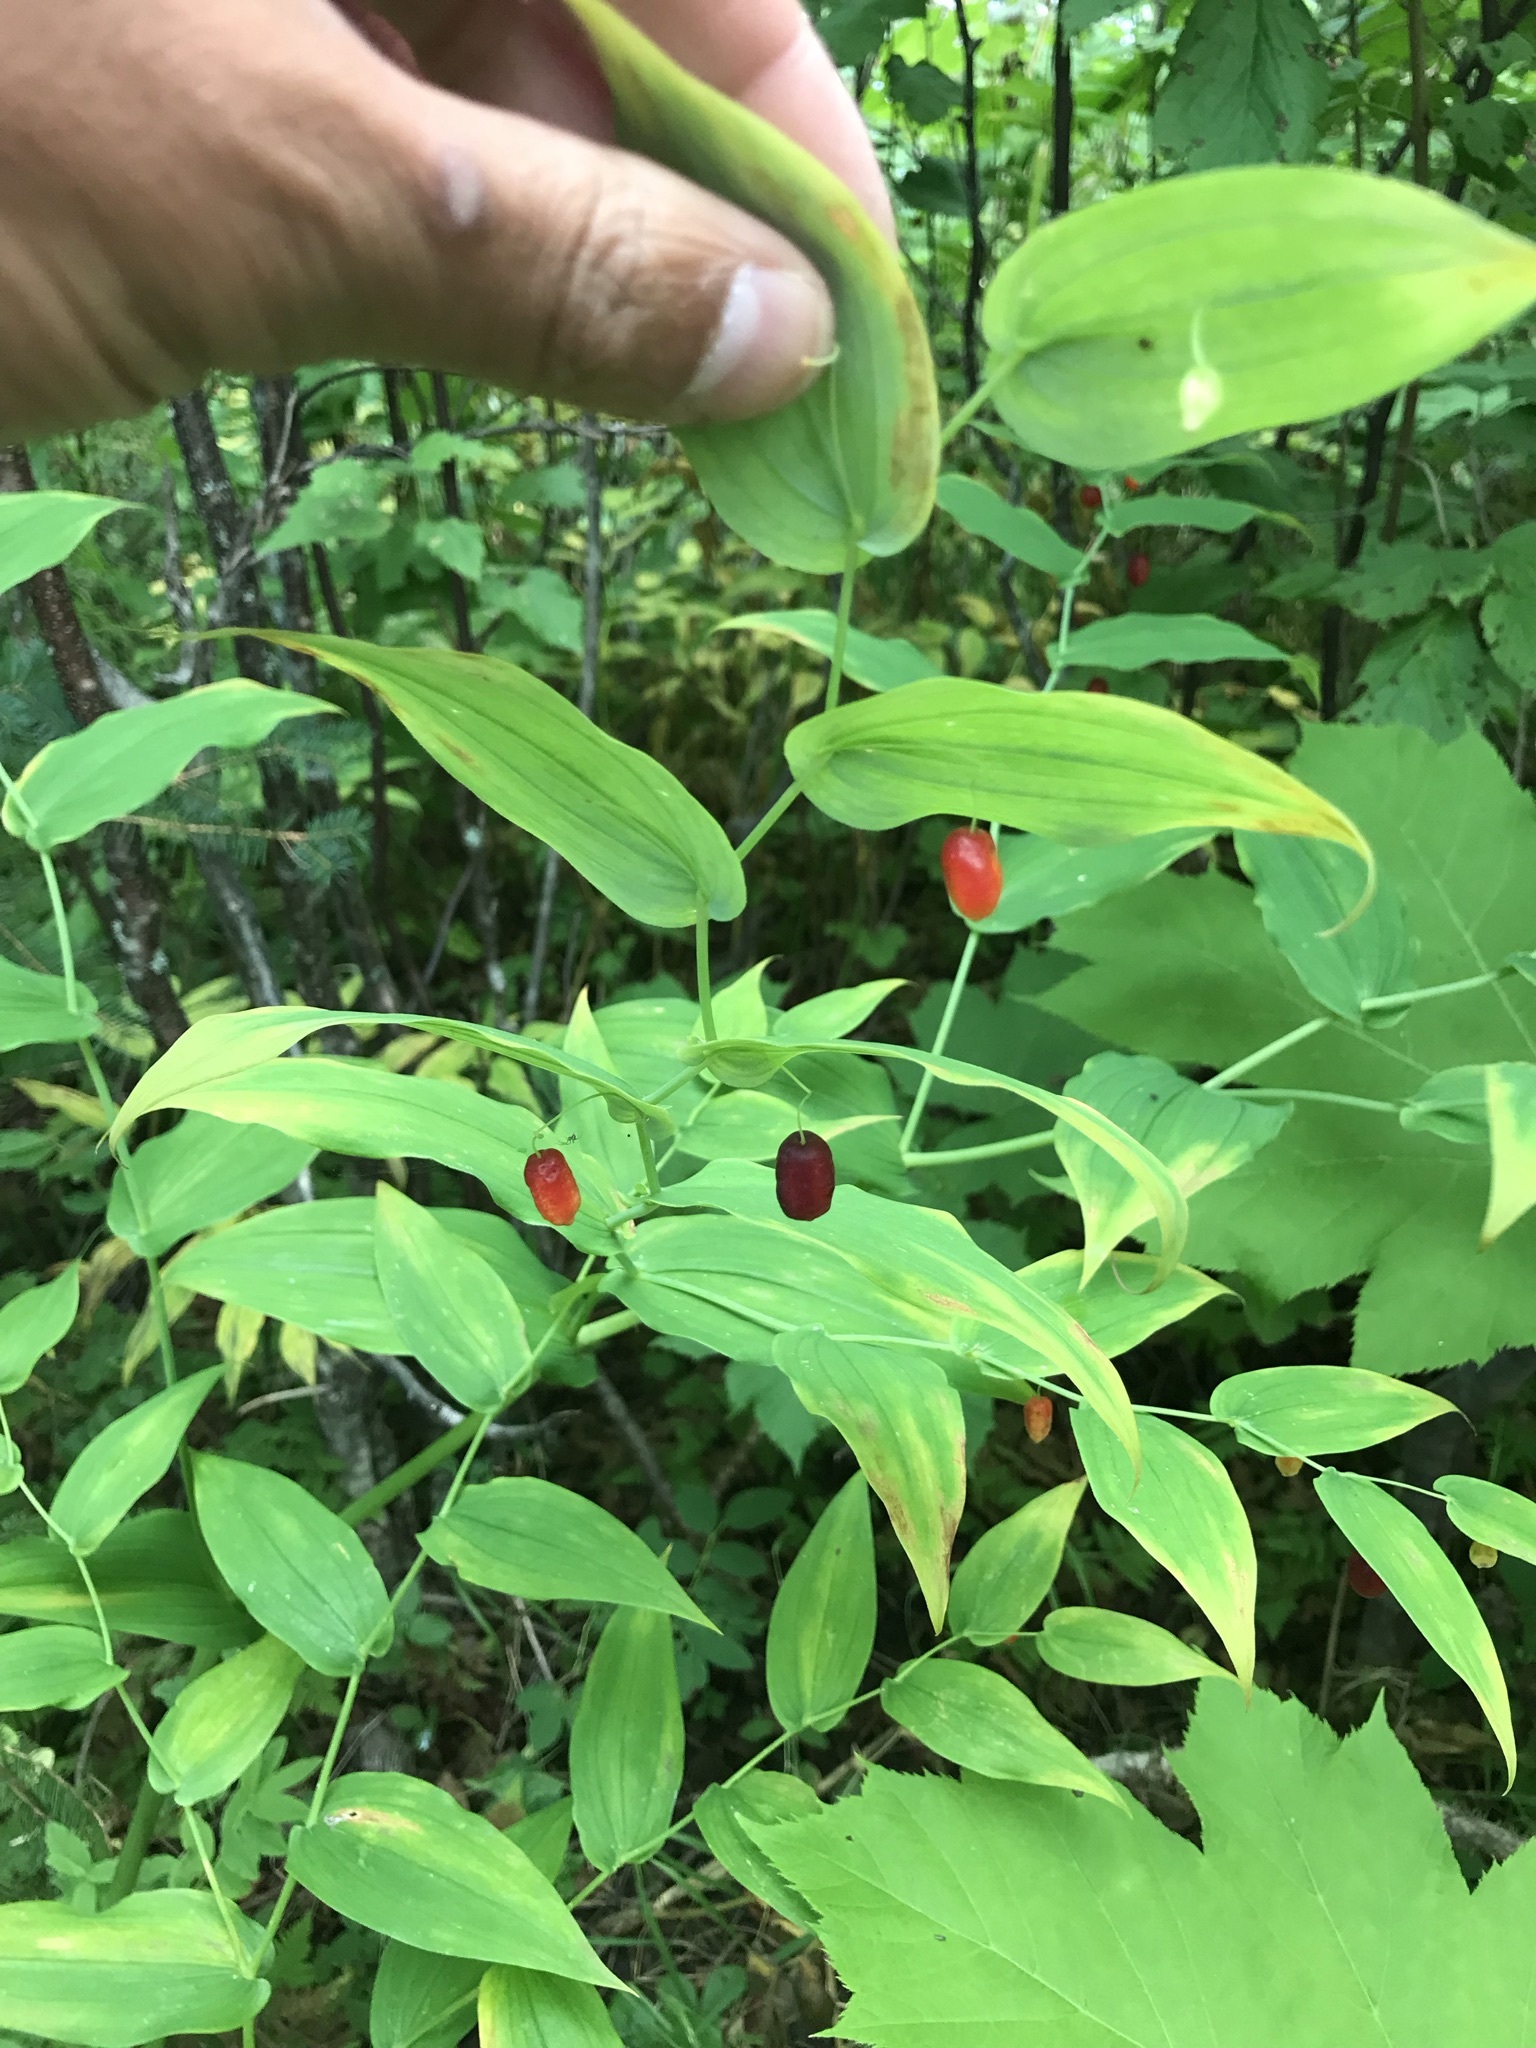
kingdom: Plantae
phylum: Tracheophyta
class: Liliopsida
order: Liliales
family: Liliaceae
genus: Streptopus
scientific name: Streptopus amplexifolius
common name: Clasp twisted stalk
